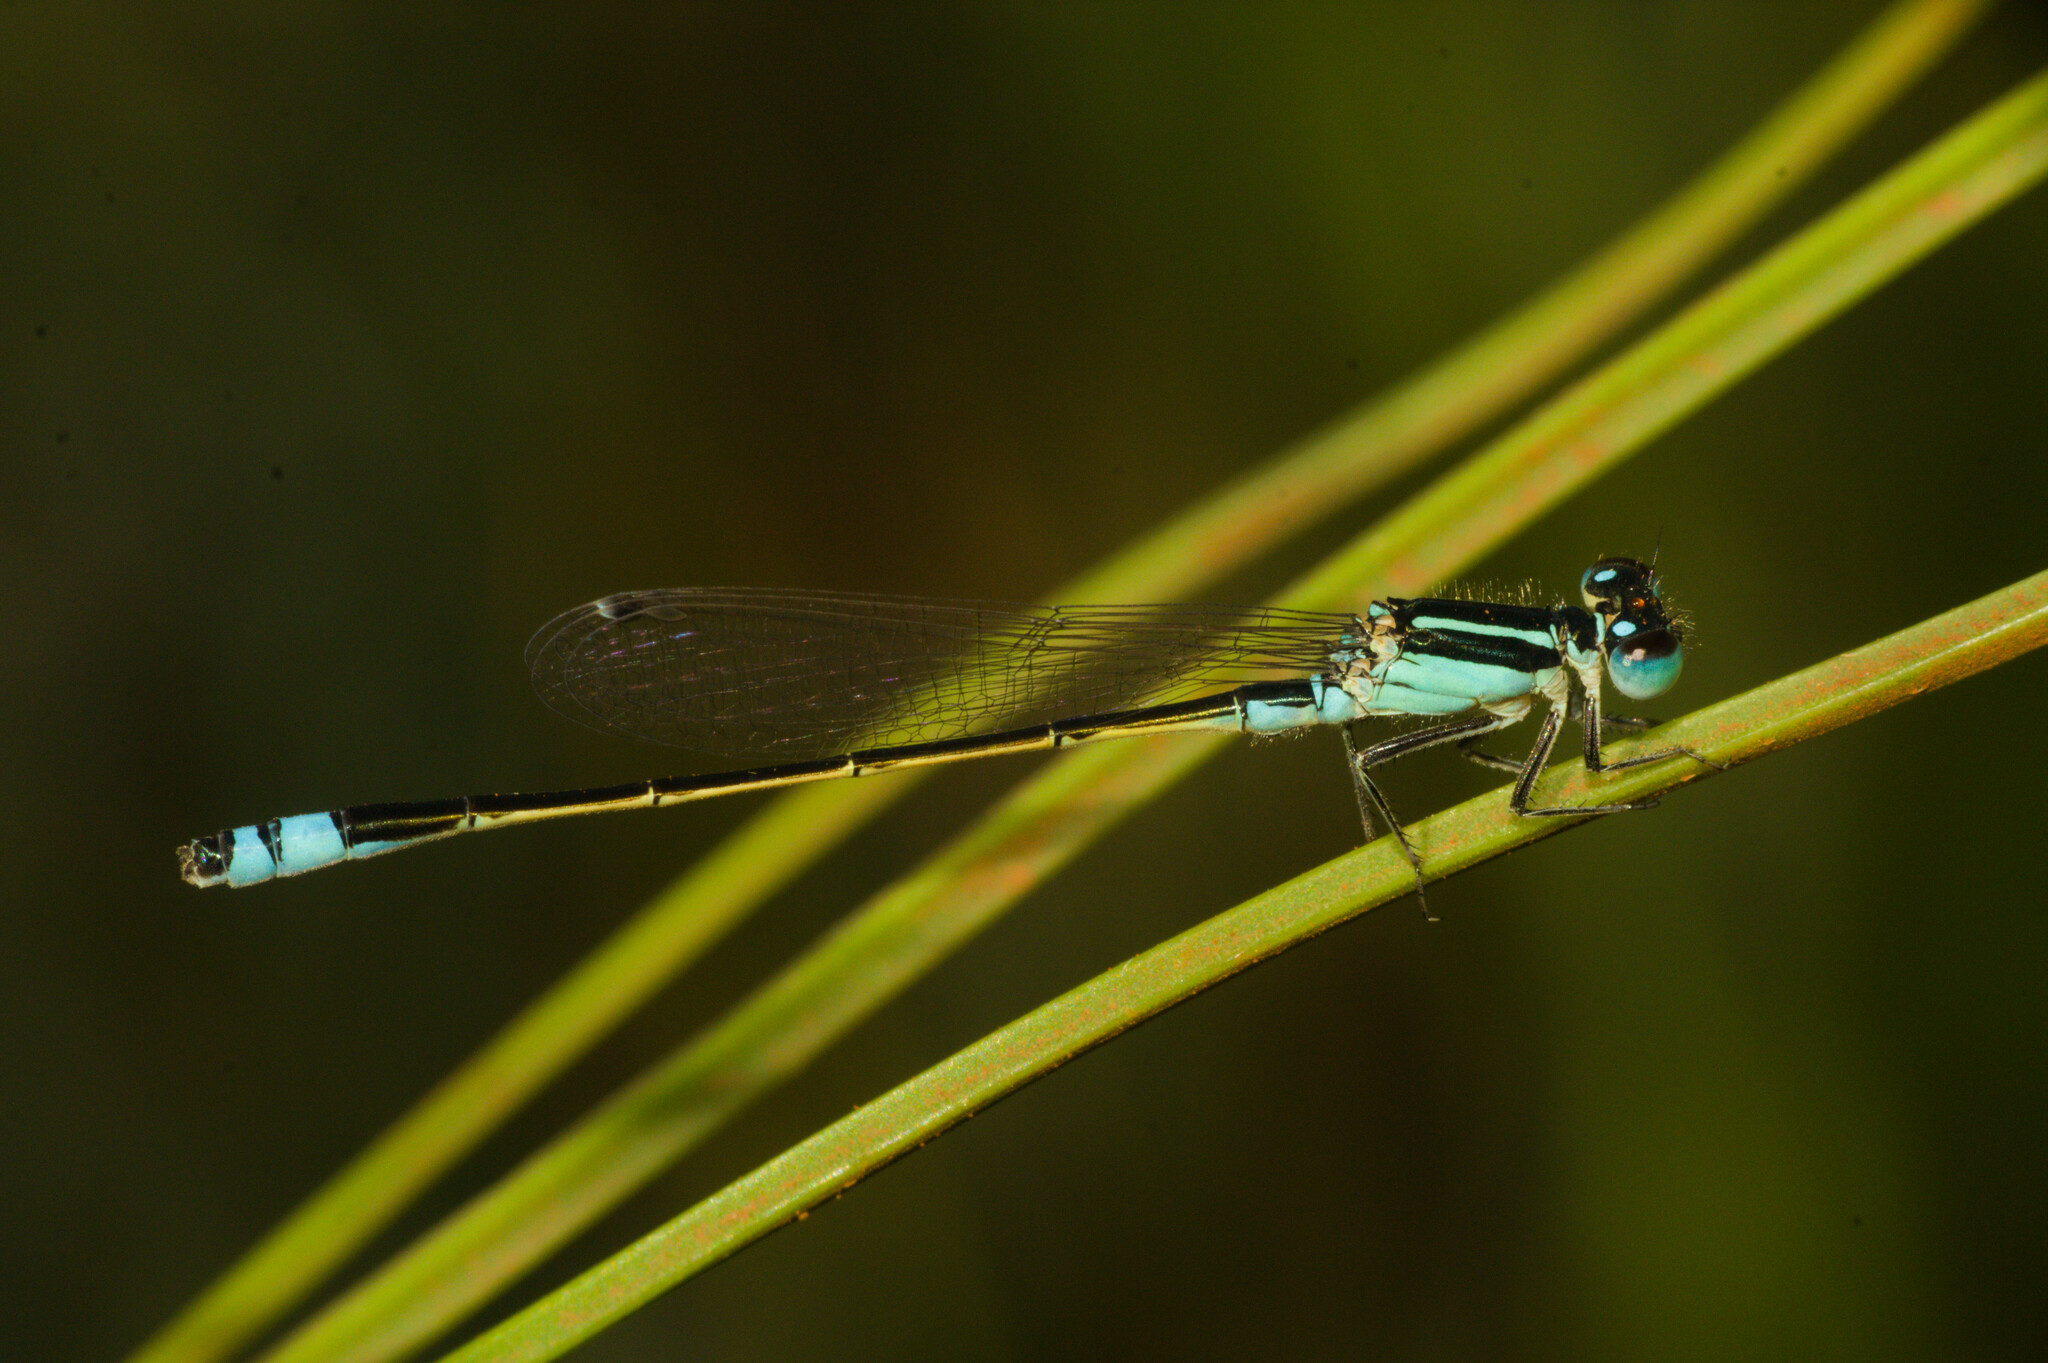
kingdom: Animalia
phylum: Arthropoda
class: Insecta
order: Odonata
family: Coenagrionidae
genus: Ischnura
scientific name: Ischnura fluviatilis
